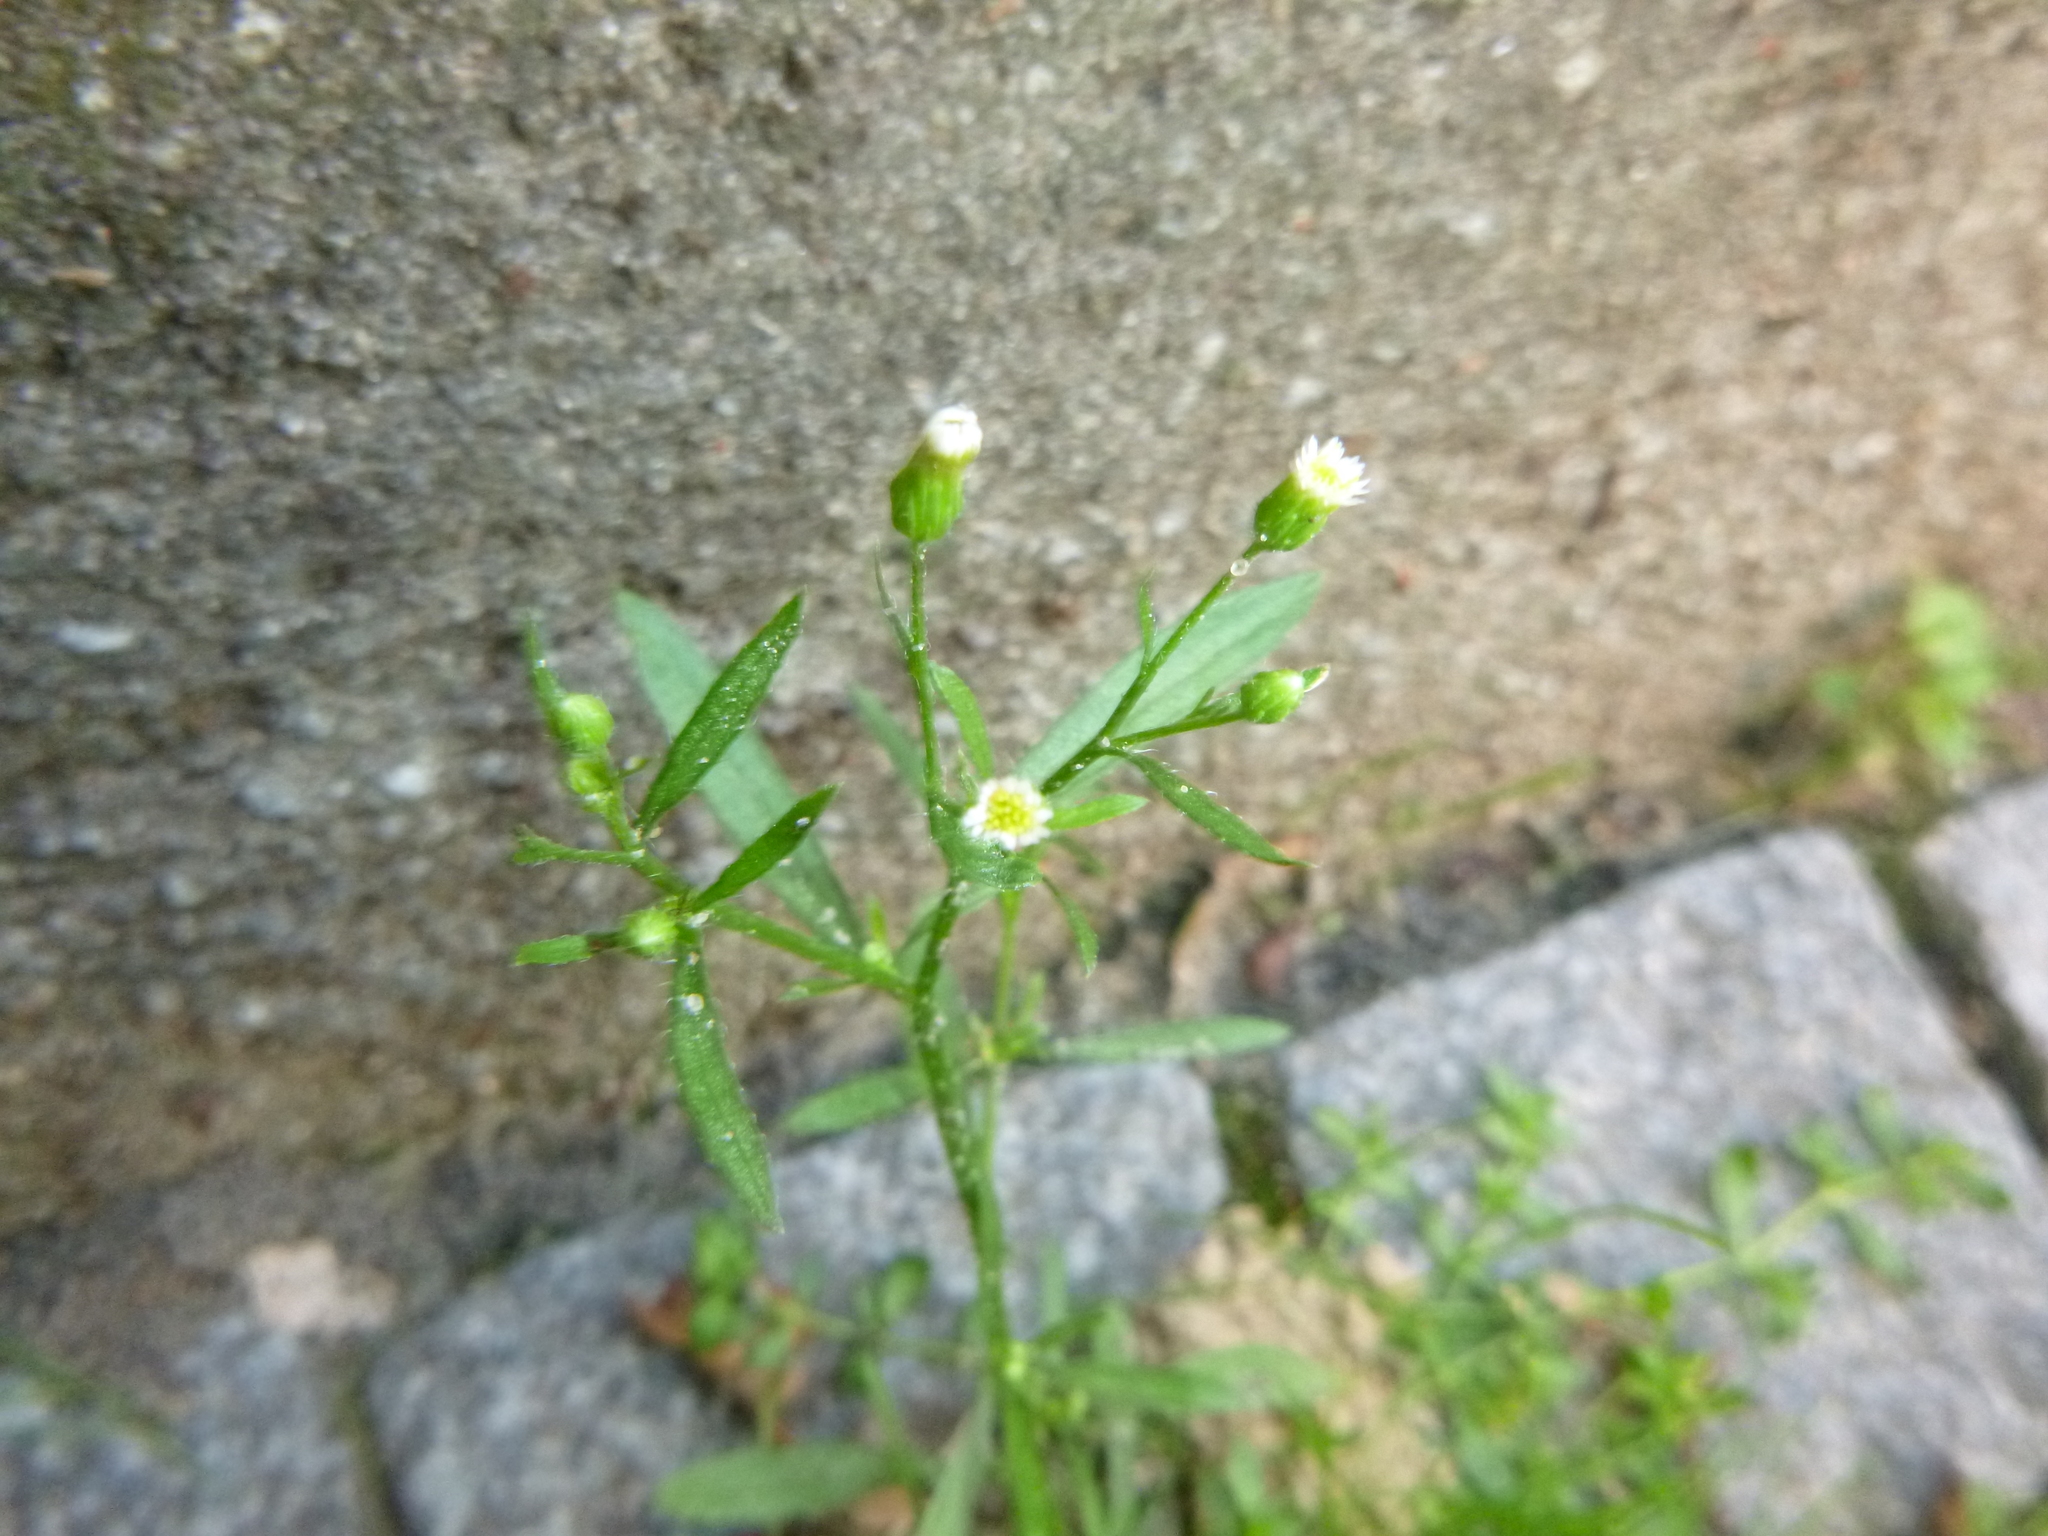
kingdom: Plantae
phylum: Tracheophyta
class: Magnoliopsida
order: Asterales
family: Asteraceae
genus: Erigeron
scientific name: Erigeron canadensis
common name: Canadian fleabane
